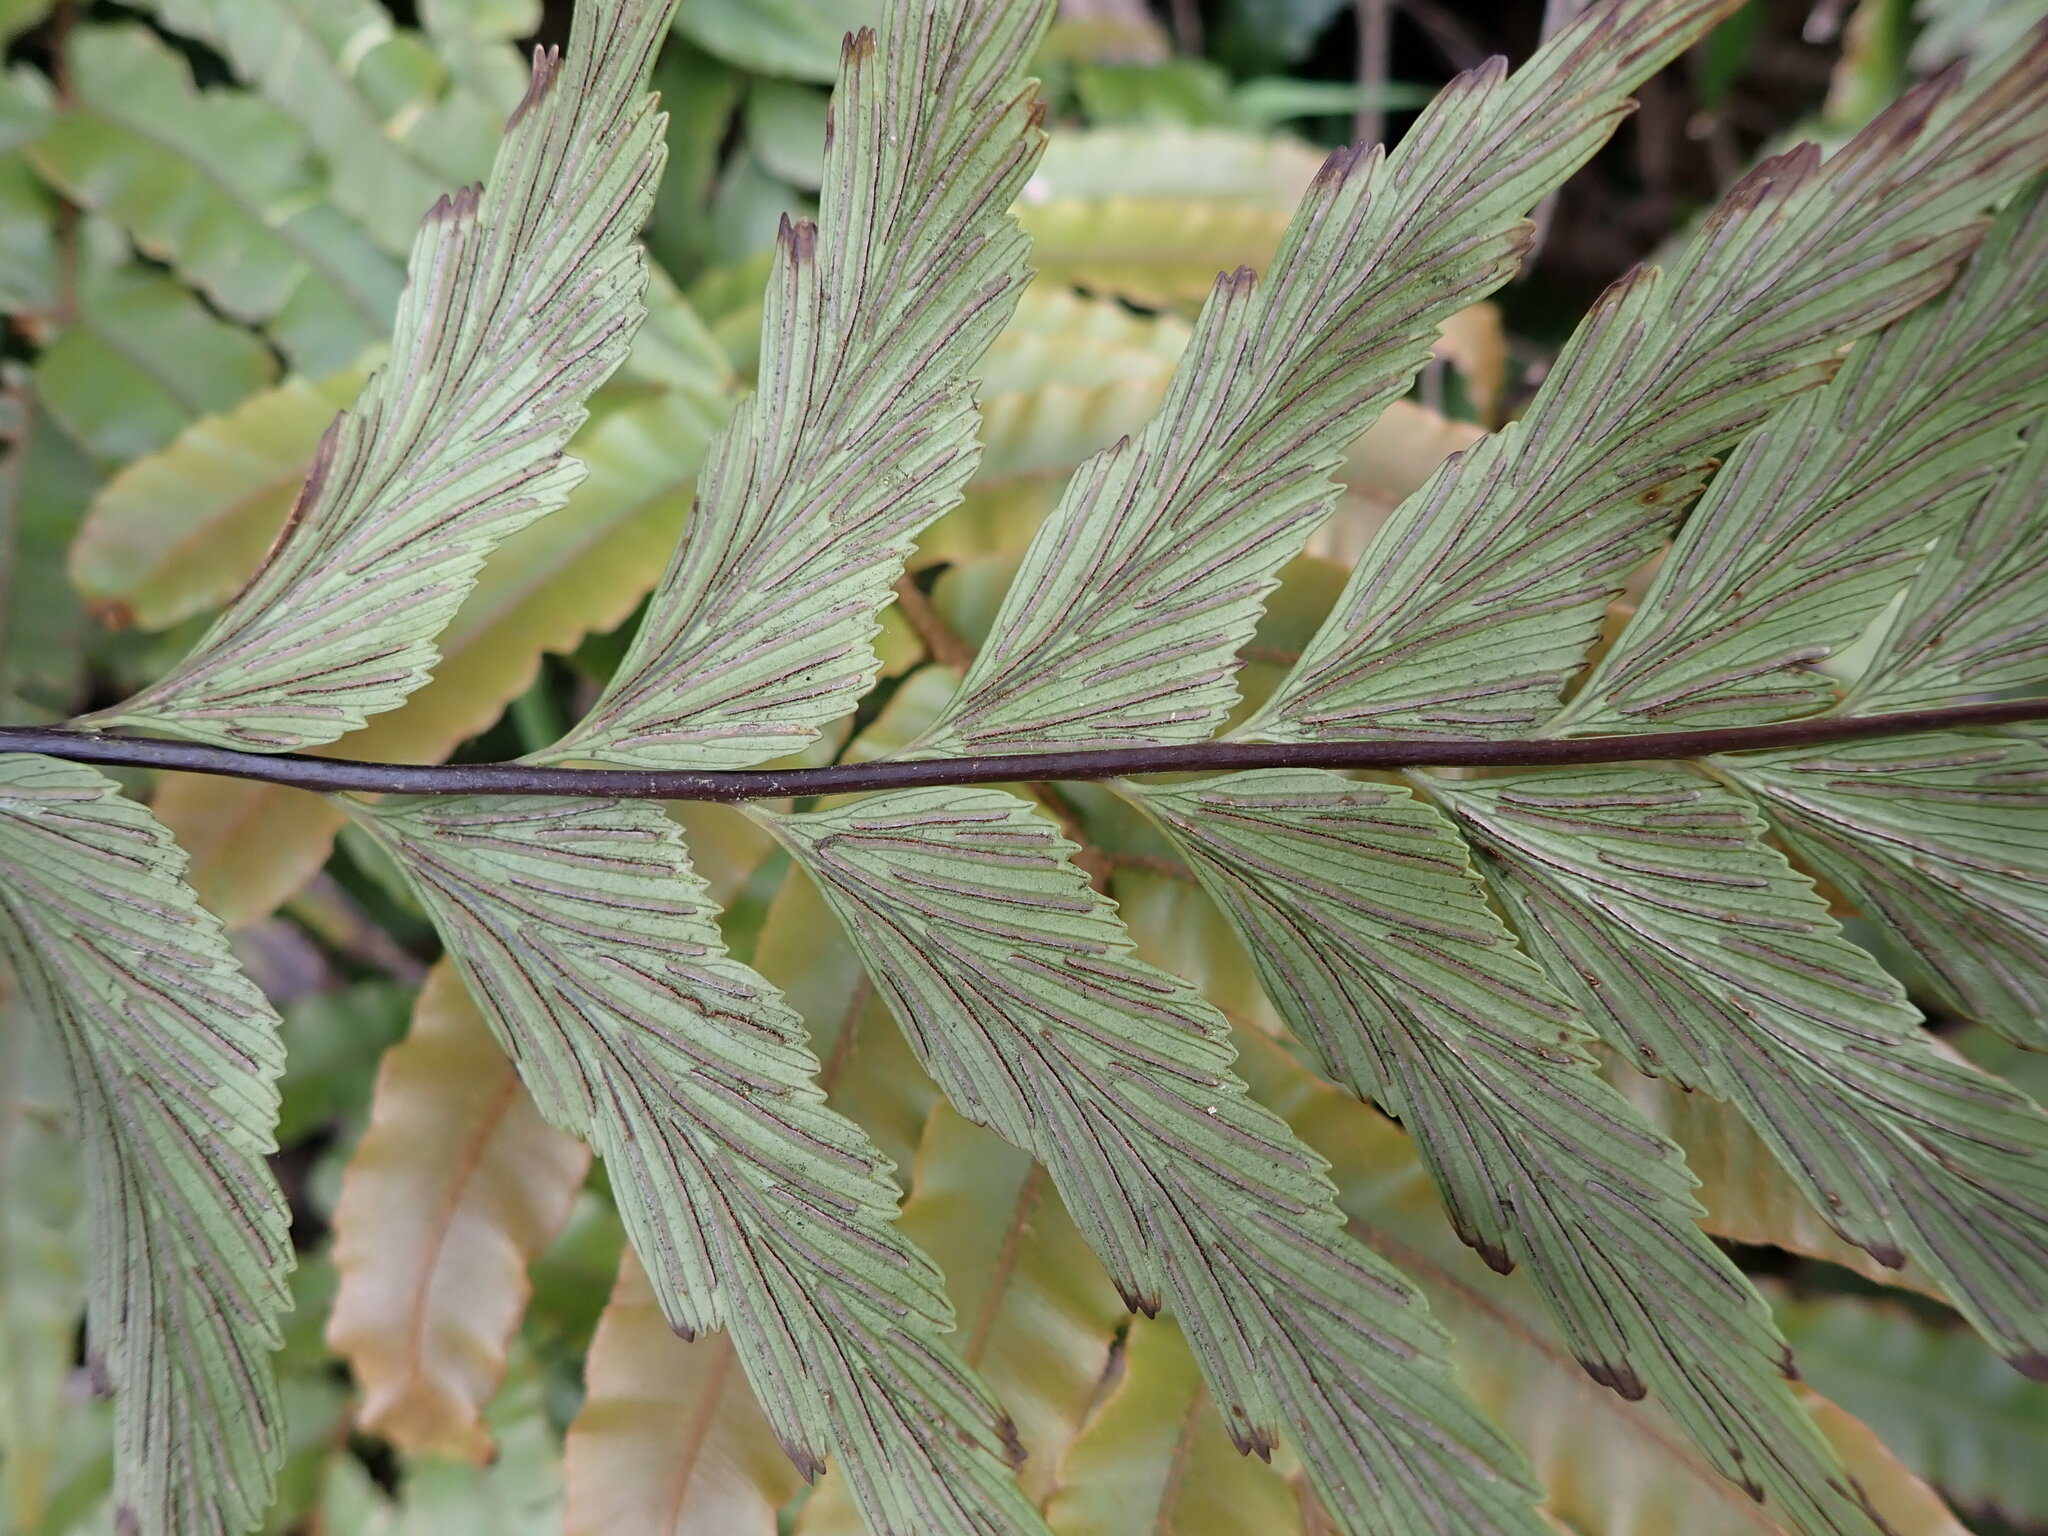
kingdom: Plantae
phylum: Tracheophyta
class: Polypodiopsida
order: Polypodiales
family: Aspleniaceae
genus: Asplenium
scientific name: Asplenium polyodon
